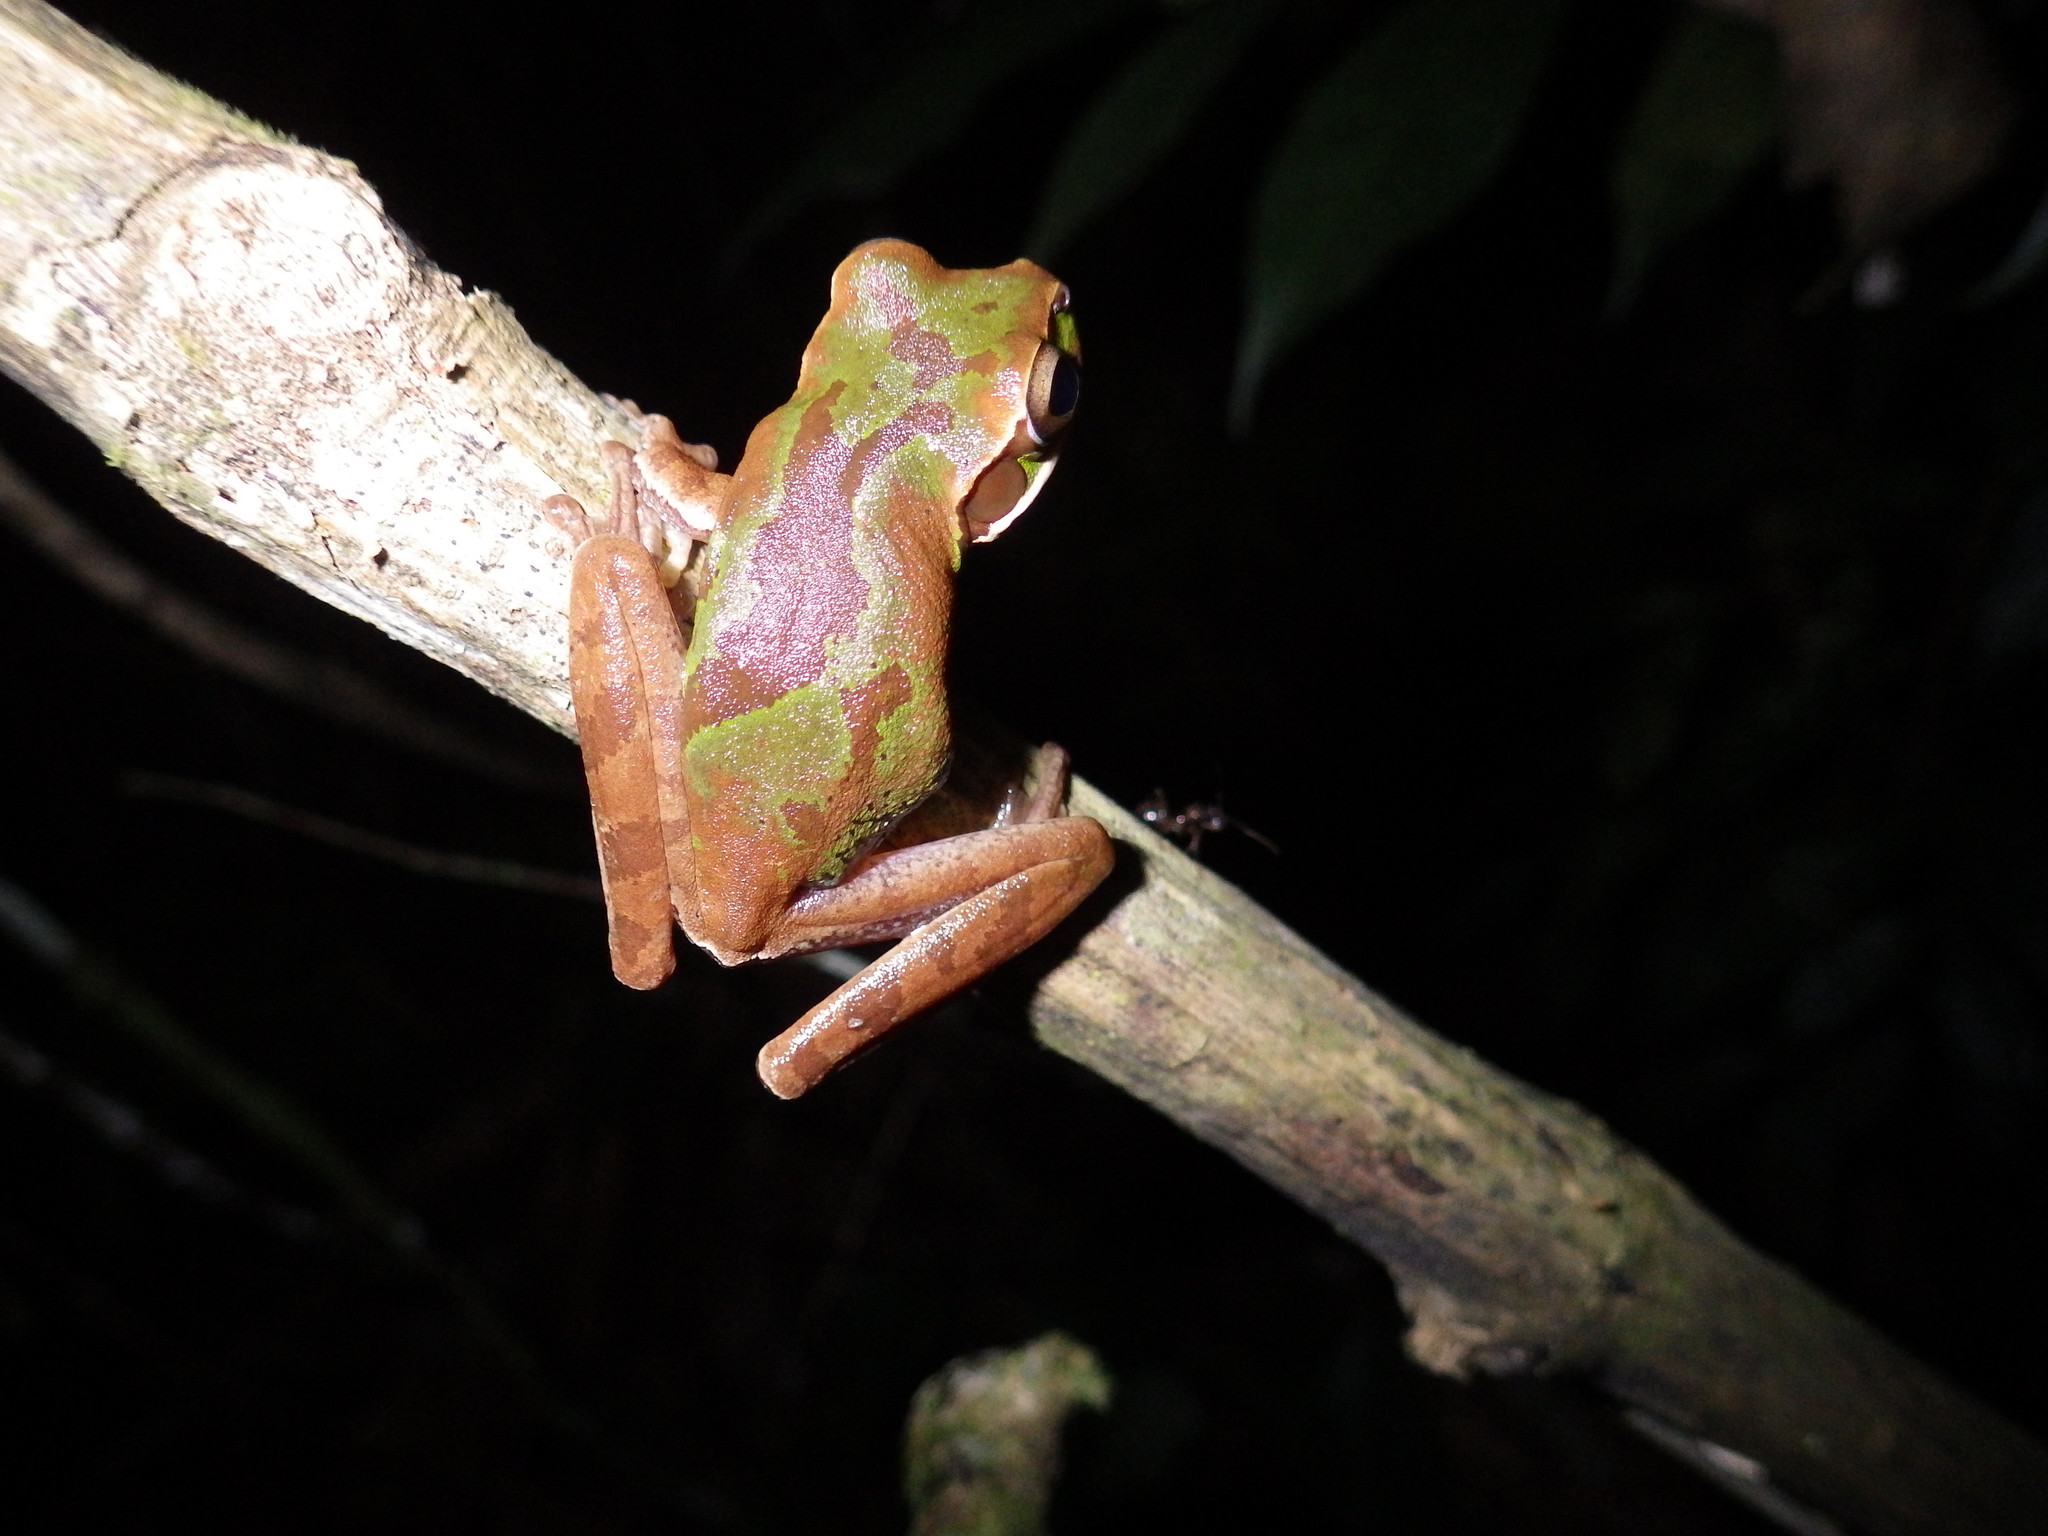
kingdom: Animalia
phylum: Chordata
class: Amphibia
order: Anura
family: Hylidae
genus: Smilisca
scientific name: Smilisca cyanosticta
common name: Blue-spotted mexican treefrog
